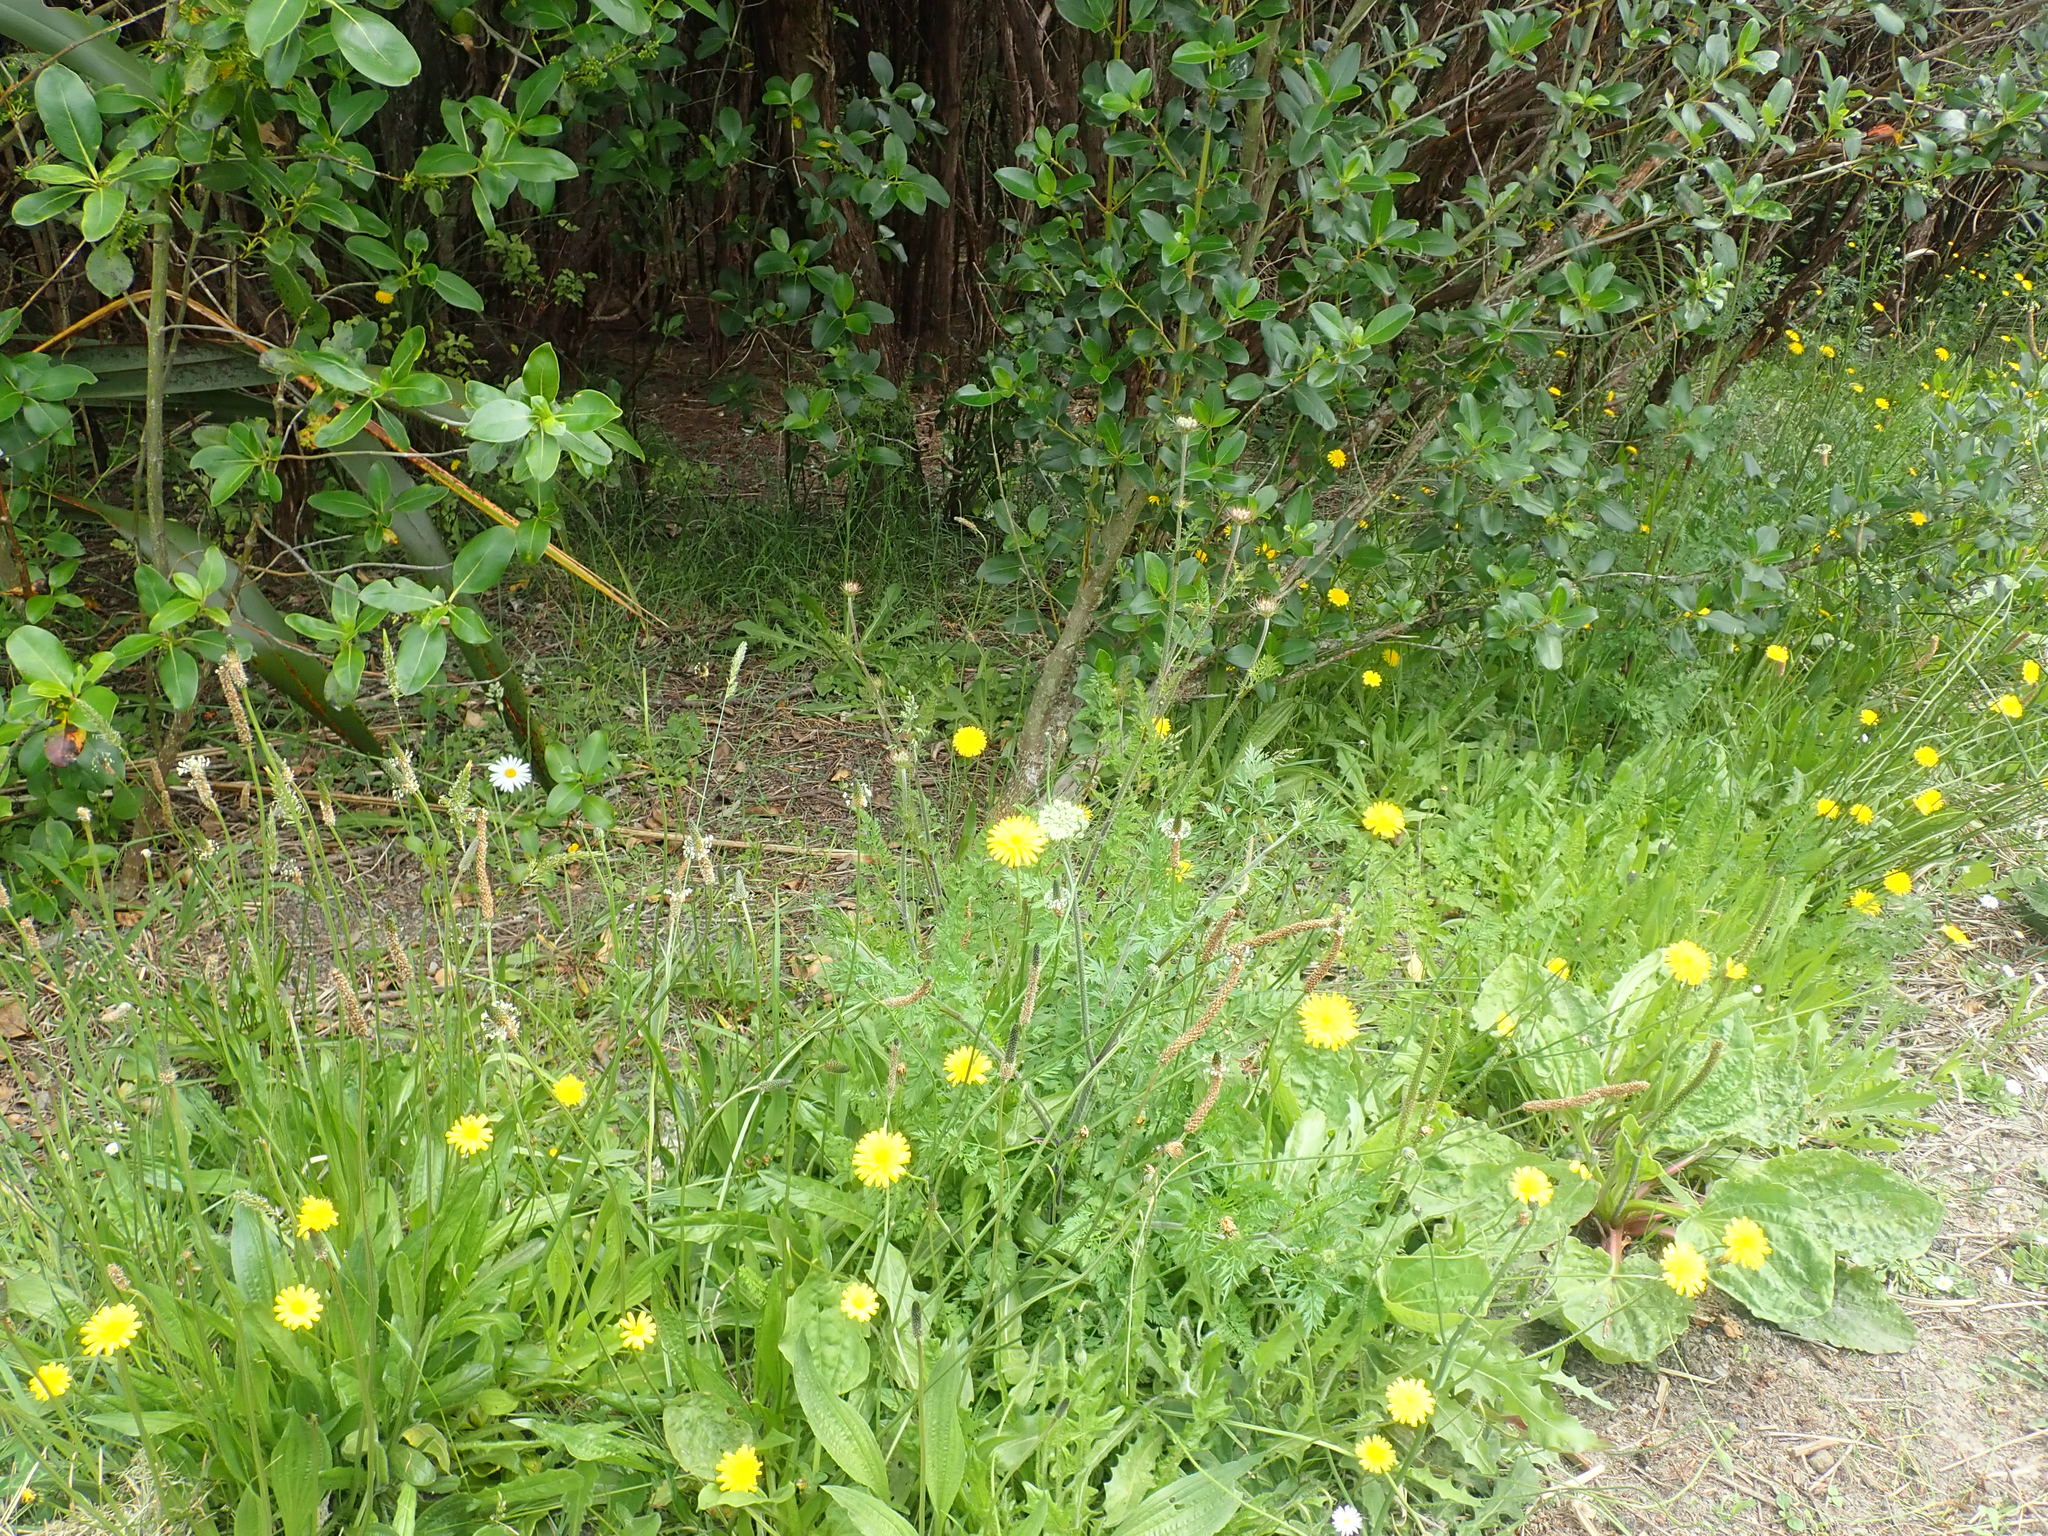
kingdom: Plantae
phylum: Tracheophyta
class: Magnoliopsida
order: Lamiales
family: Plantaginaceae
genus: Plantago
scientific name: Plantago lanceolata
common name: Ribwort plantain
